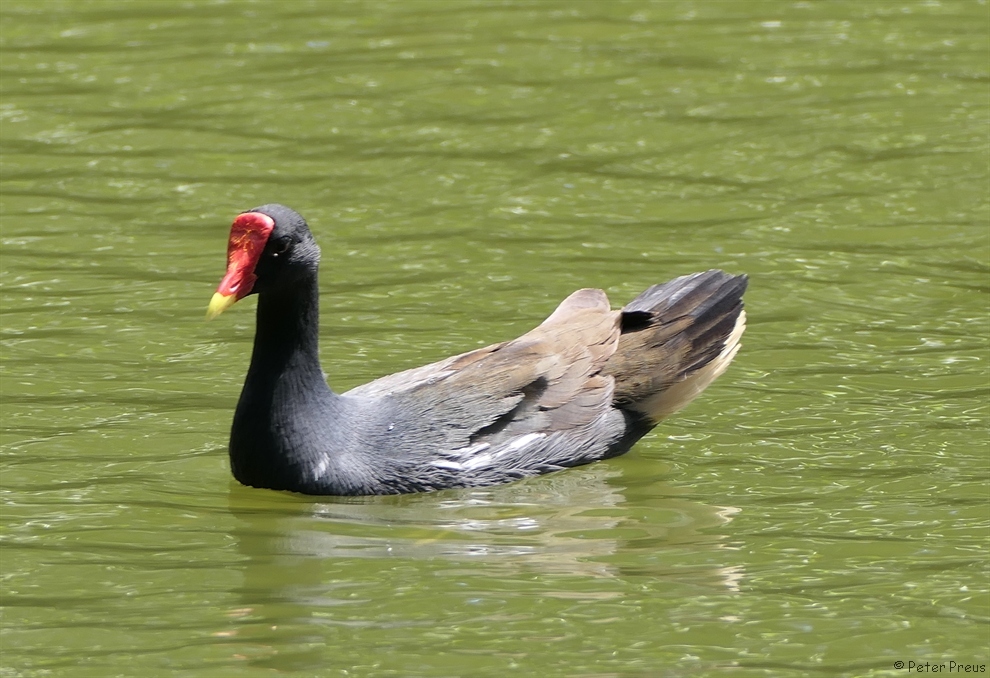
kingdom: Animalia
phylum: Chordata
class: Aves
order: Gruiformes
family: Rallidae
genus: Gallinula
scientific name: Gallinula chloropus
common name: Common moorhen
